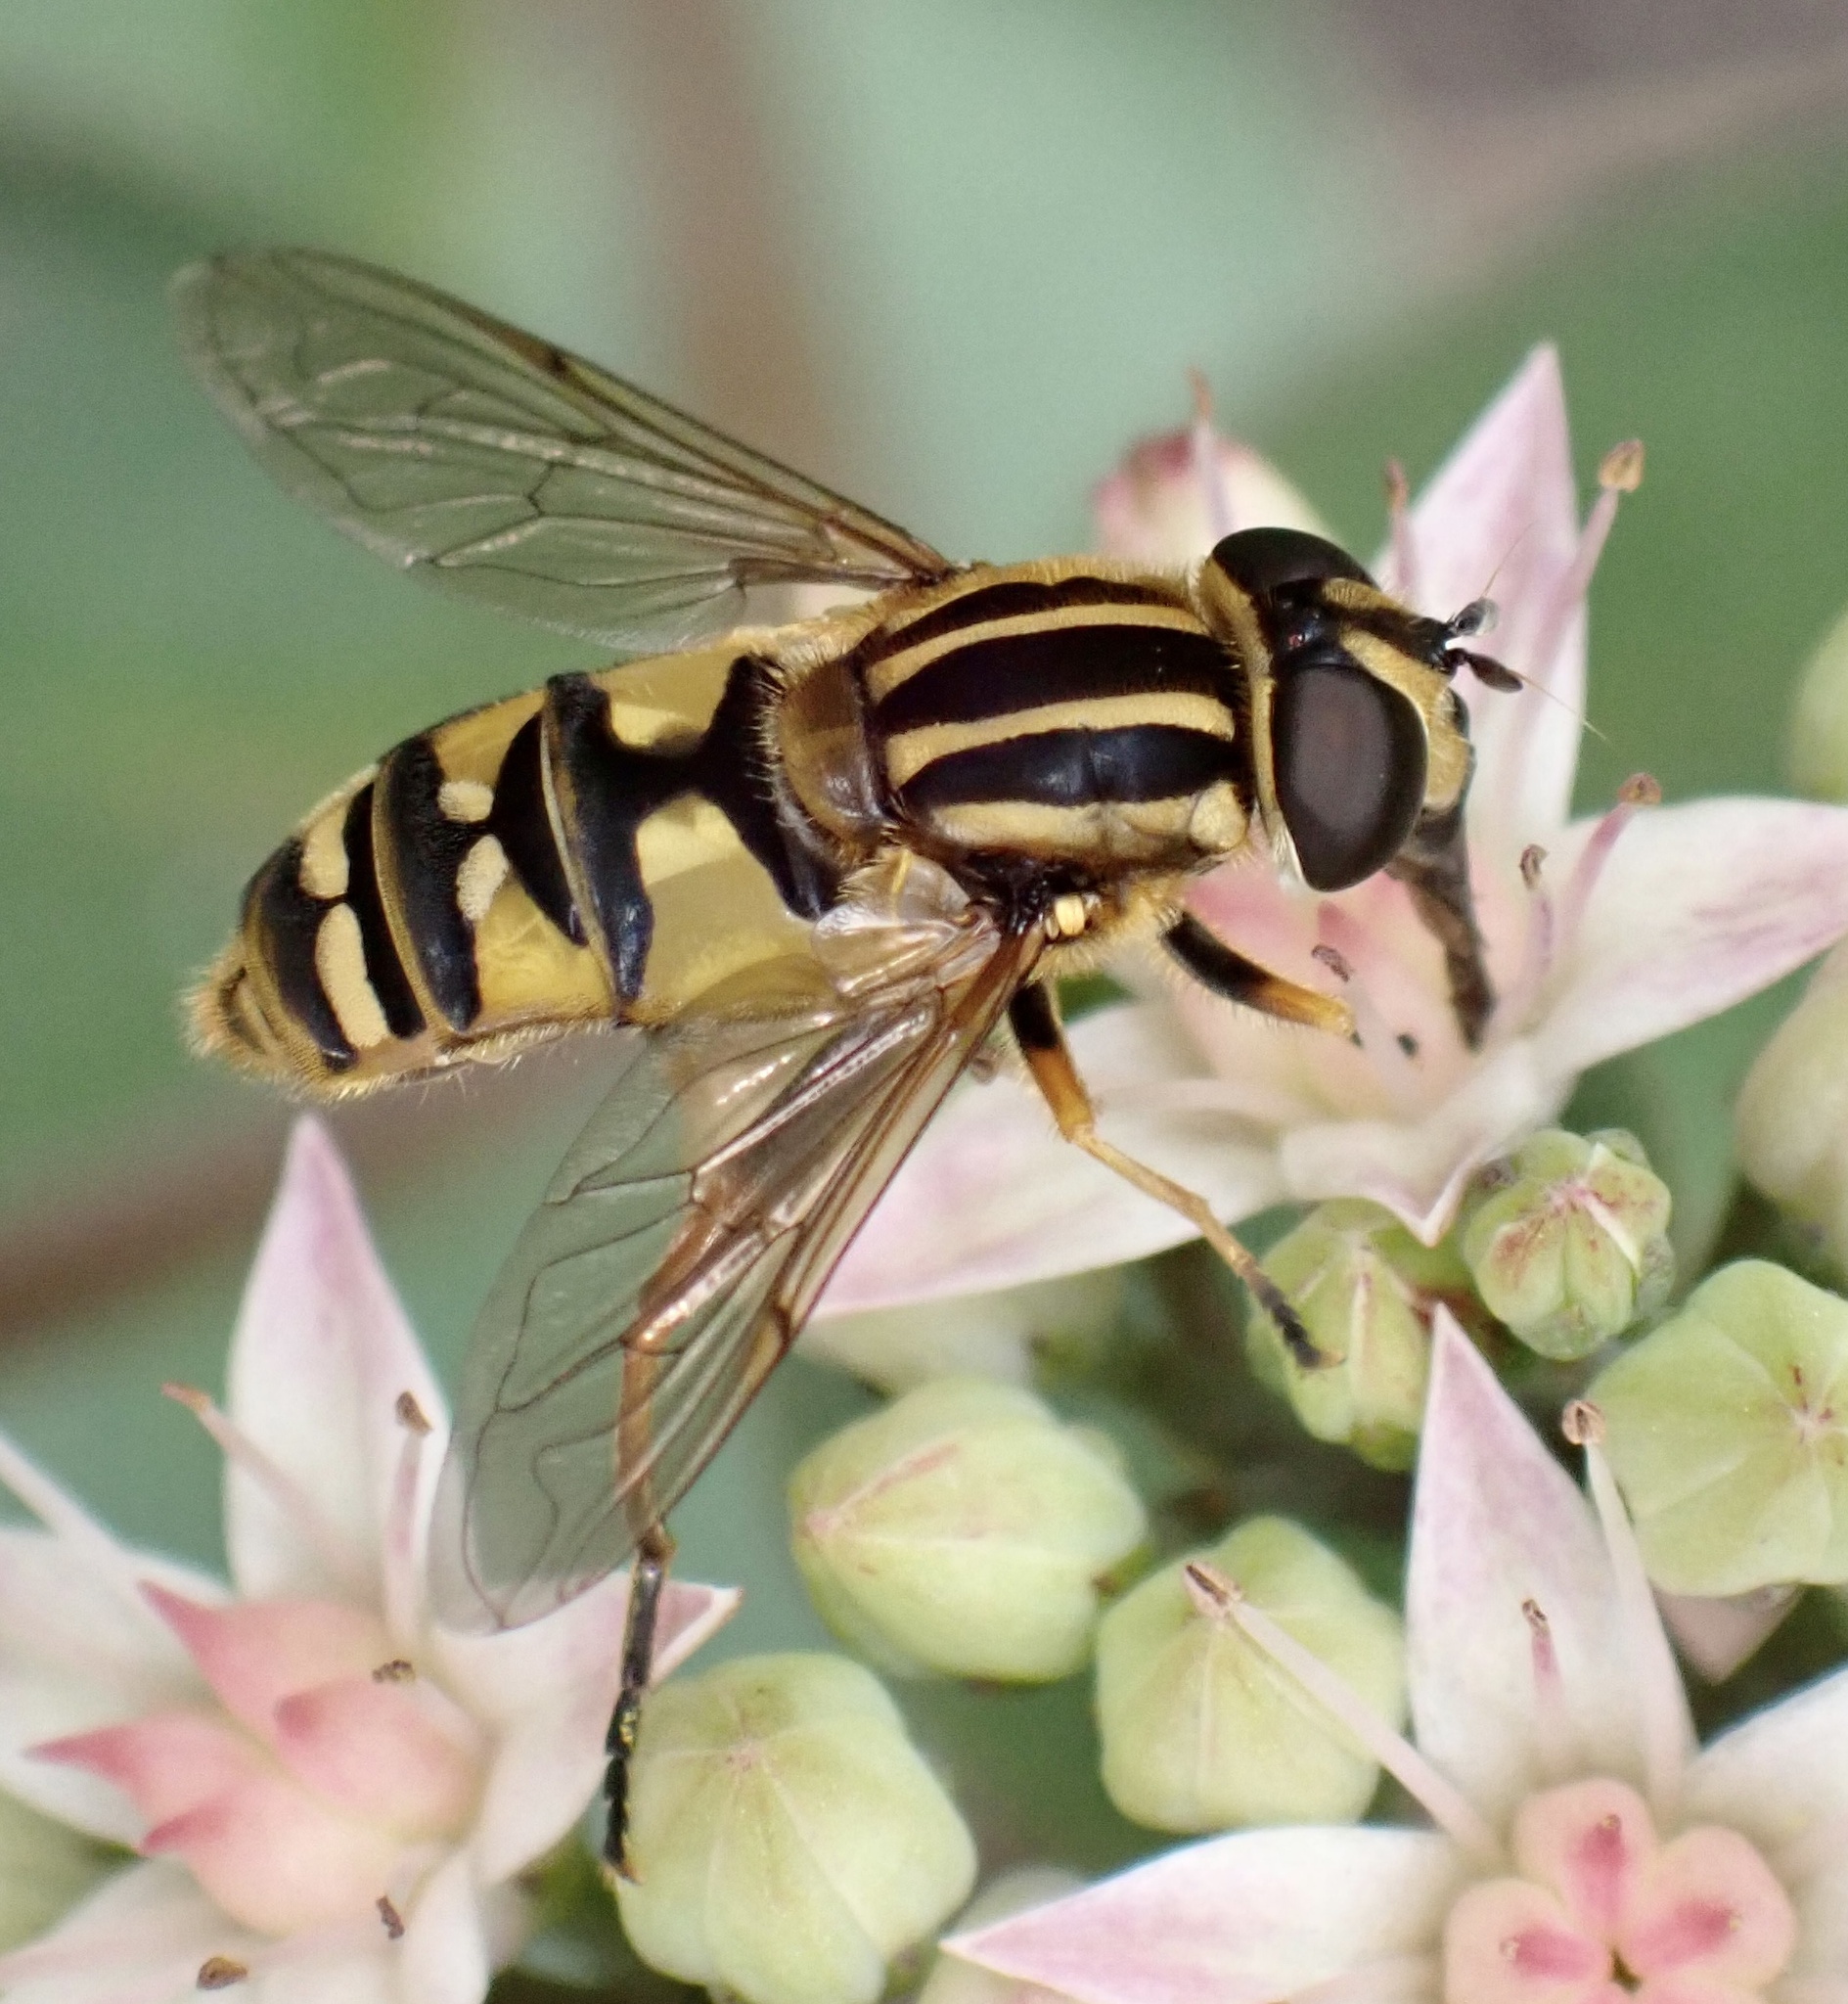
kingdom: Animalia
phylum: Arthropoda
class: Insecta
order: Diptera
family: Syrphidae
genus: Helophilus
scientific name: Helophilus pendulus
